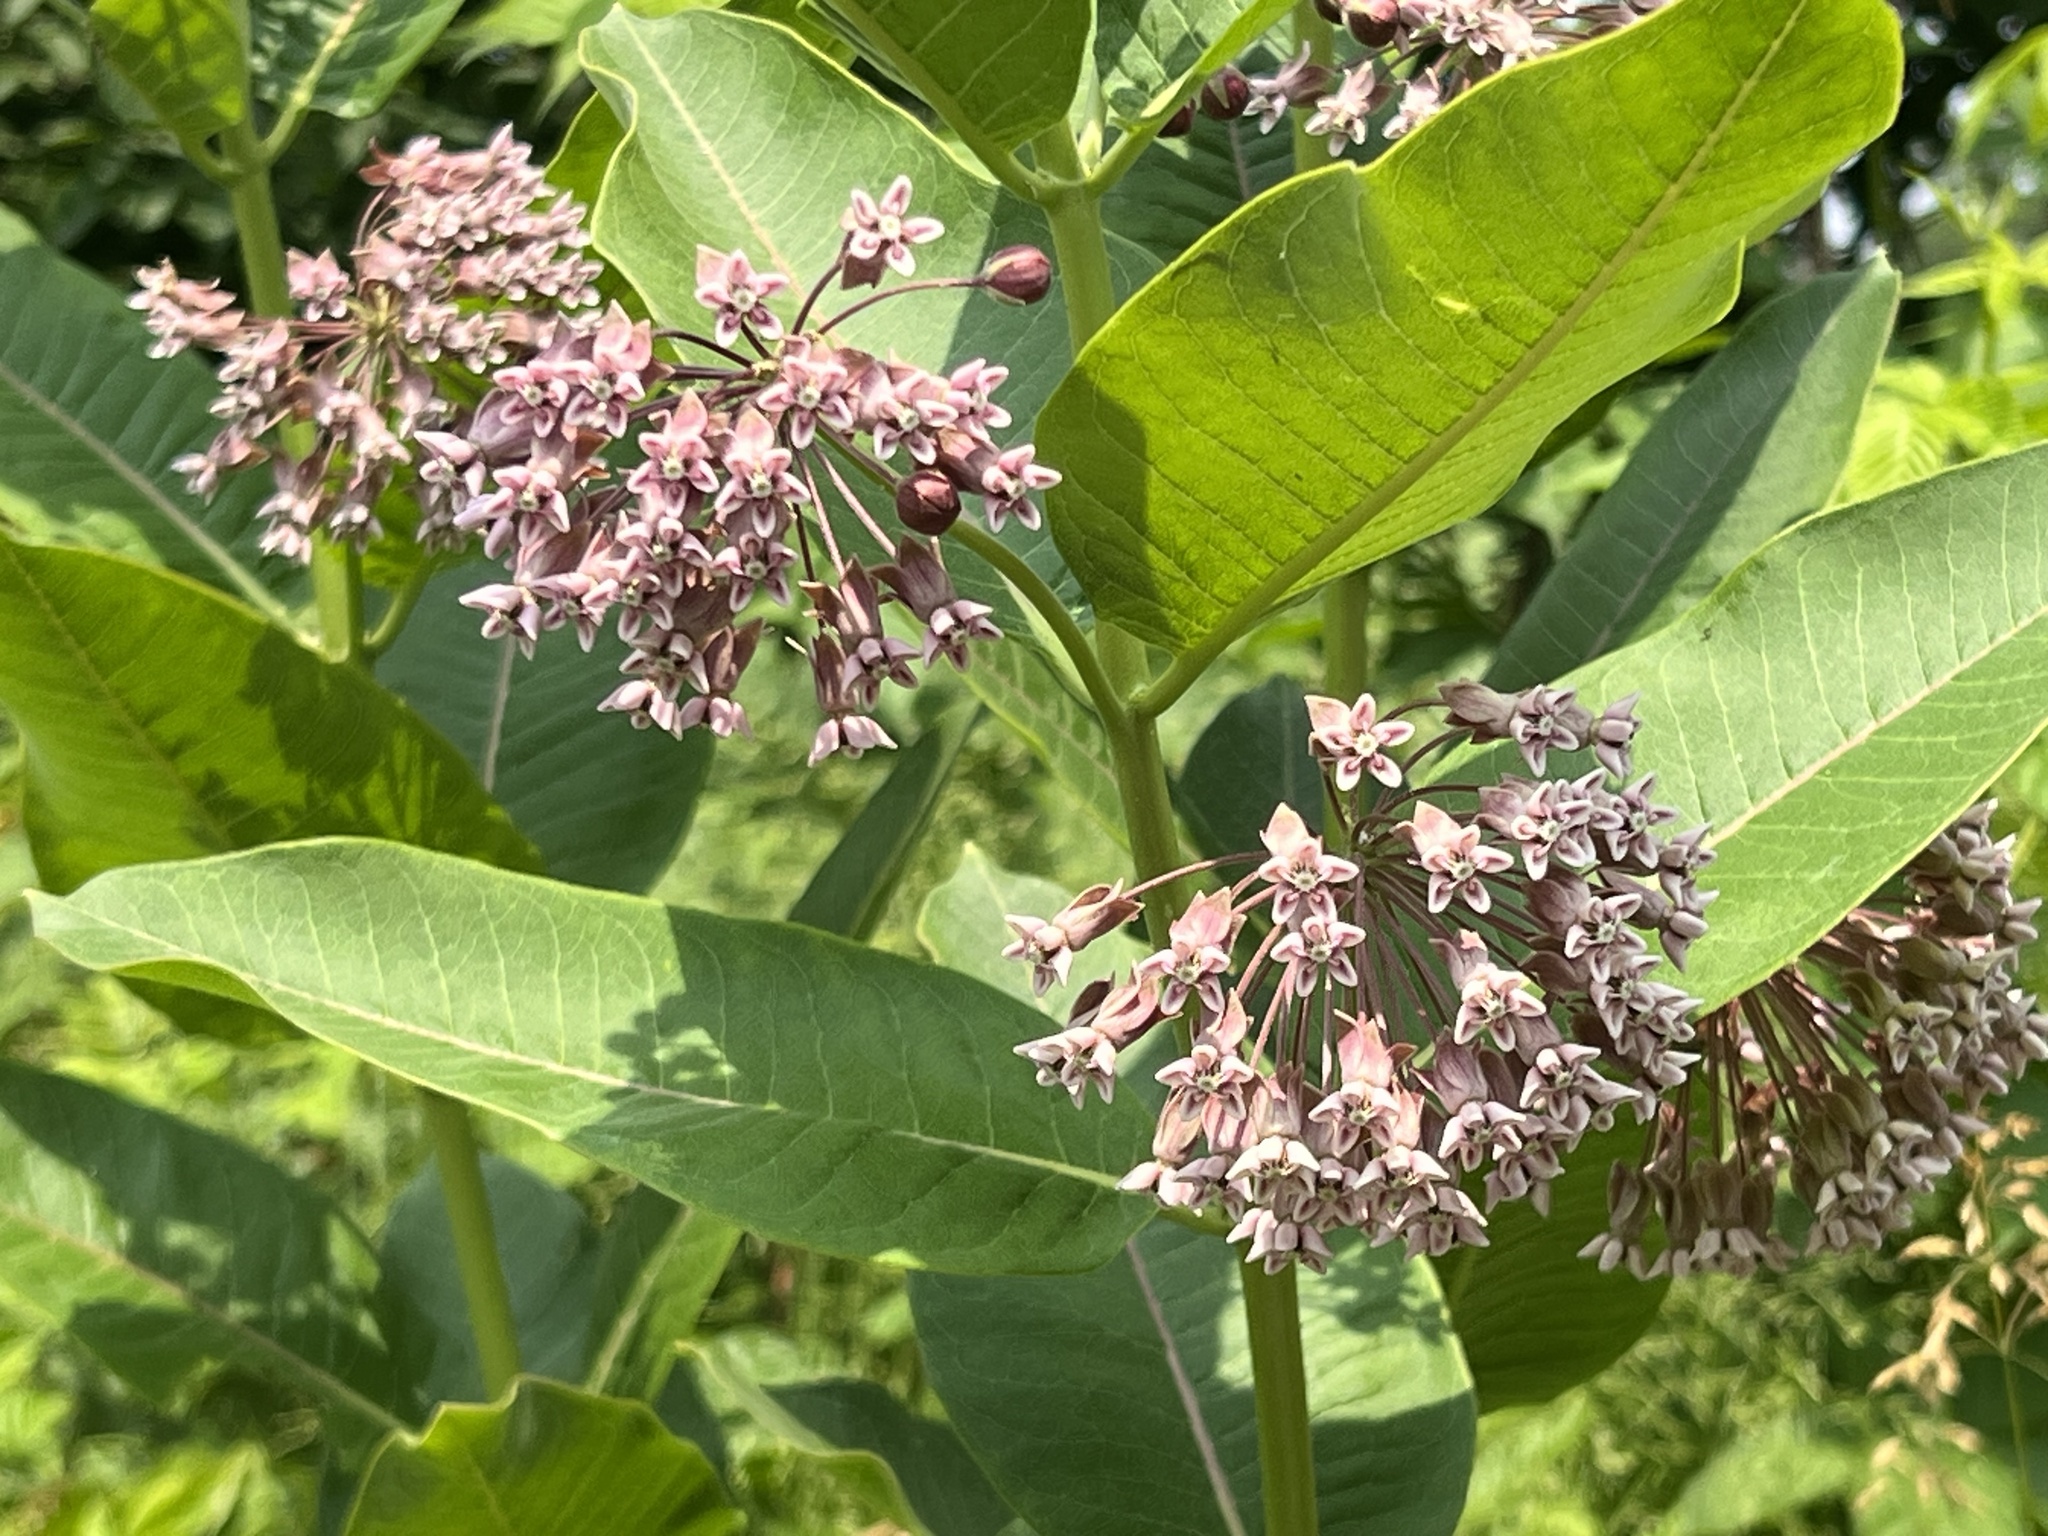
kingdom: Plantae
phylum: Tracheophyta
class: Magnoliopsida
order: Gentianales
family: Apocynaceae
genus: Asclepias
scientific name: Asclepias syriaca
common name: Common milkweed
